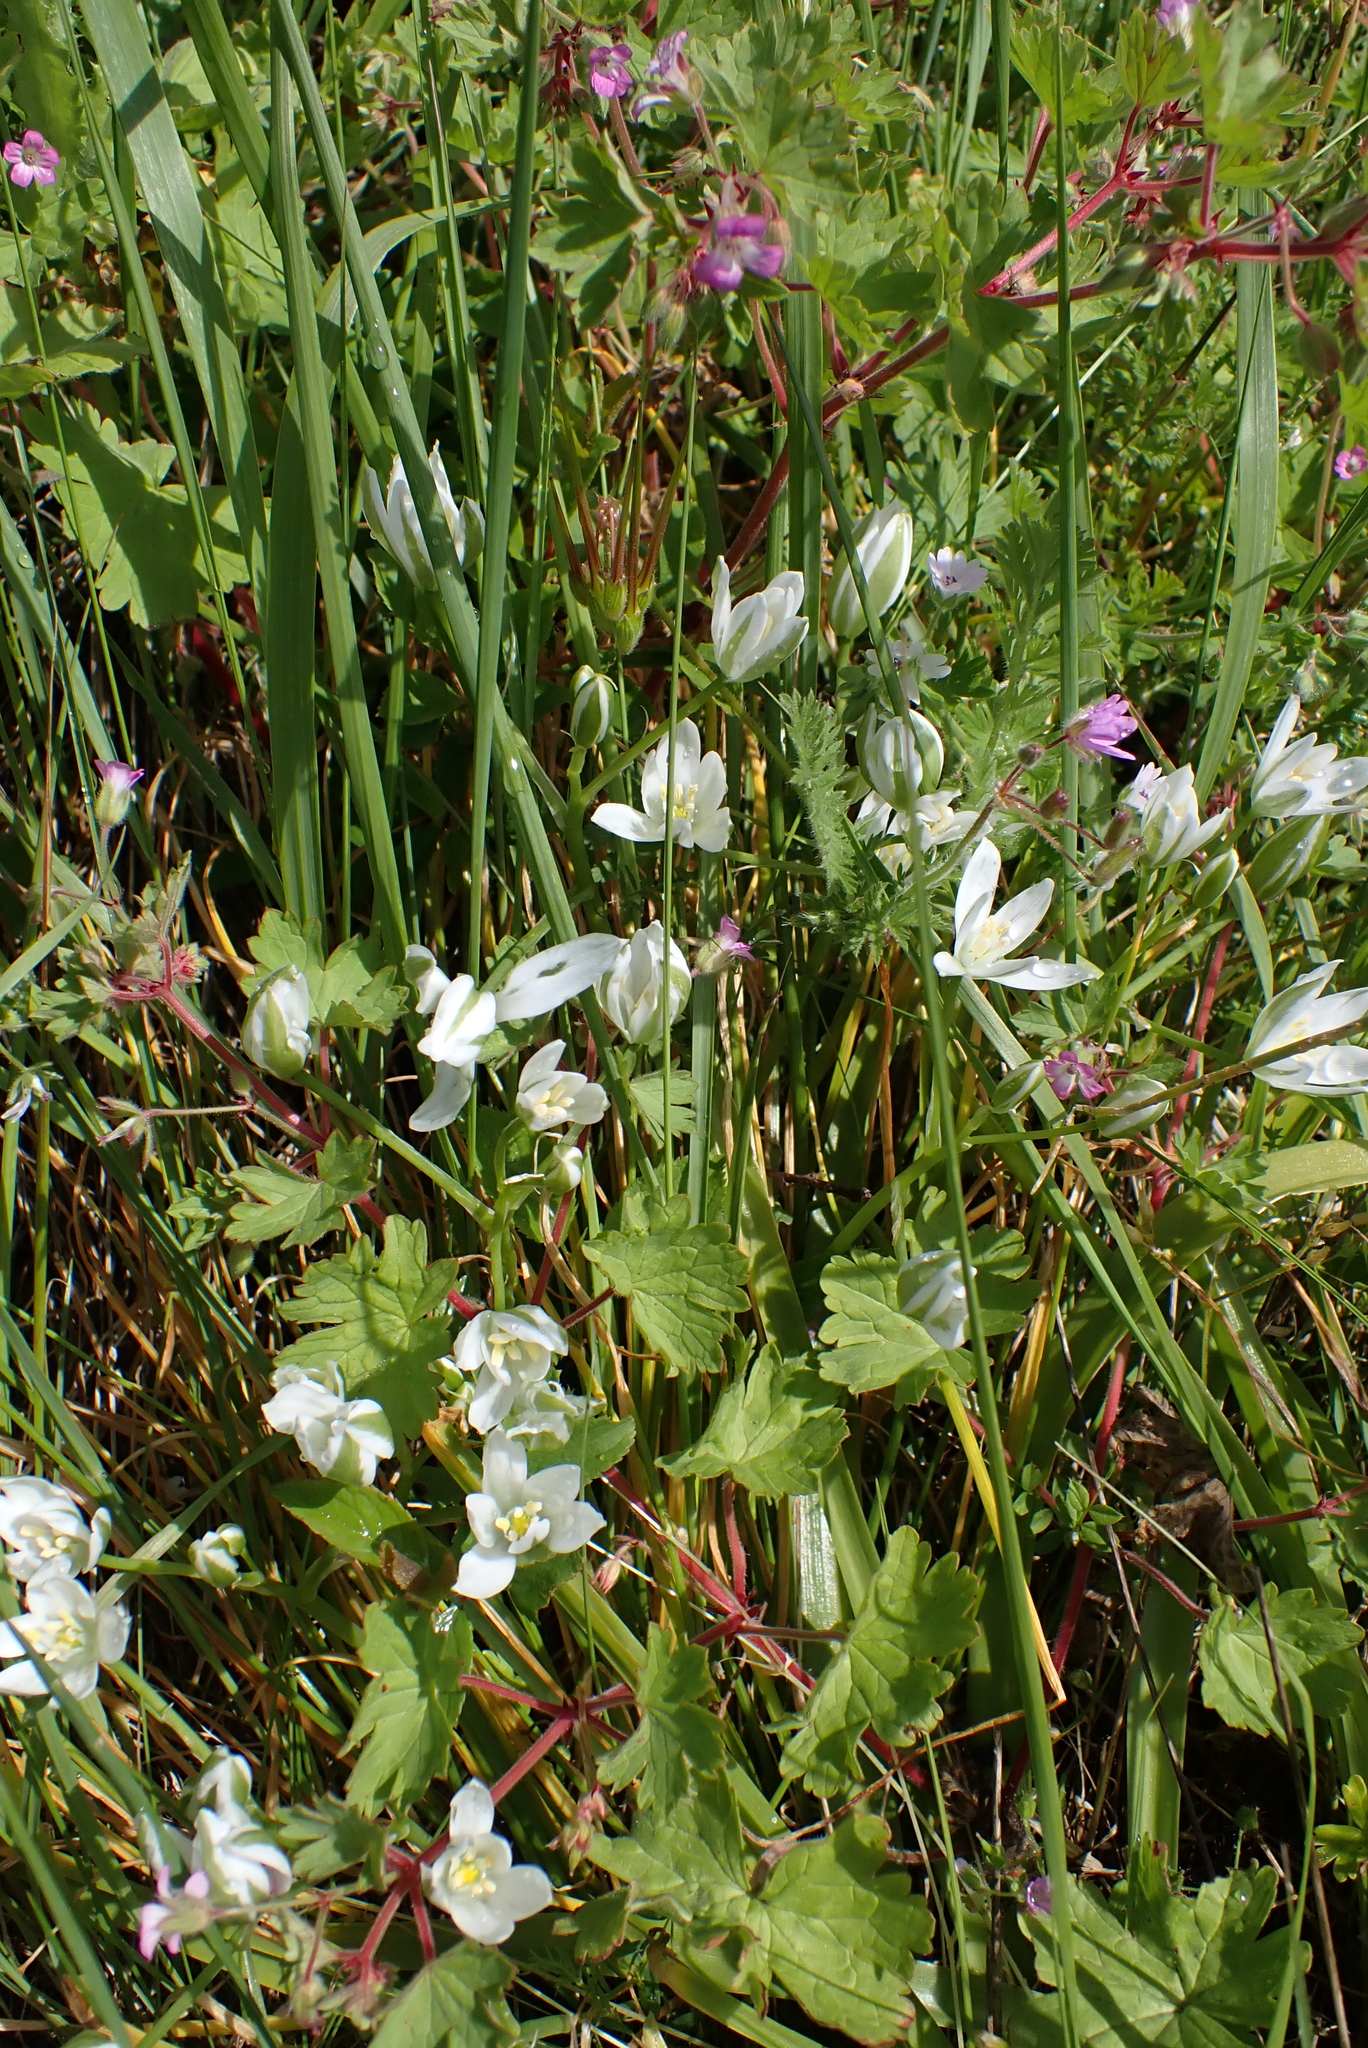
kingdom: Plantae
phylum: Tracheophyta
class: Liliopsida
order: Asparagales
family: Asparagaceae
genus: Ornithogalum
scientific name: Ornithogalum umbellatum
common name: Garden star-of-bethlehem
